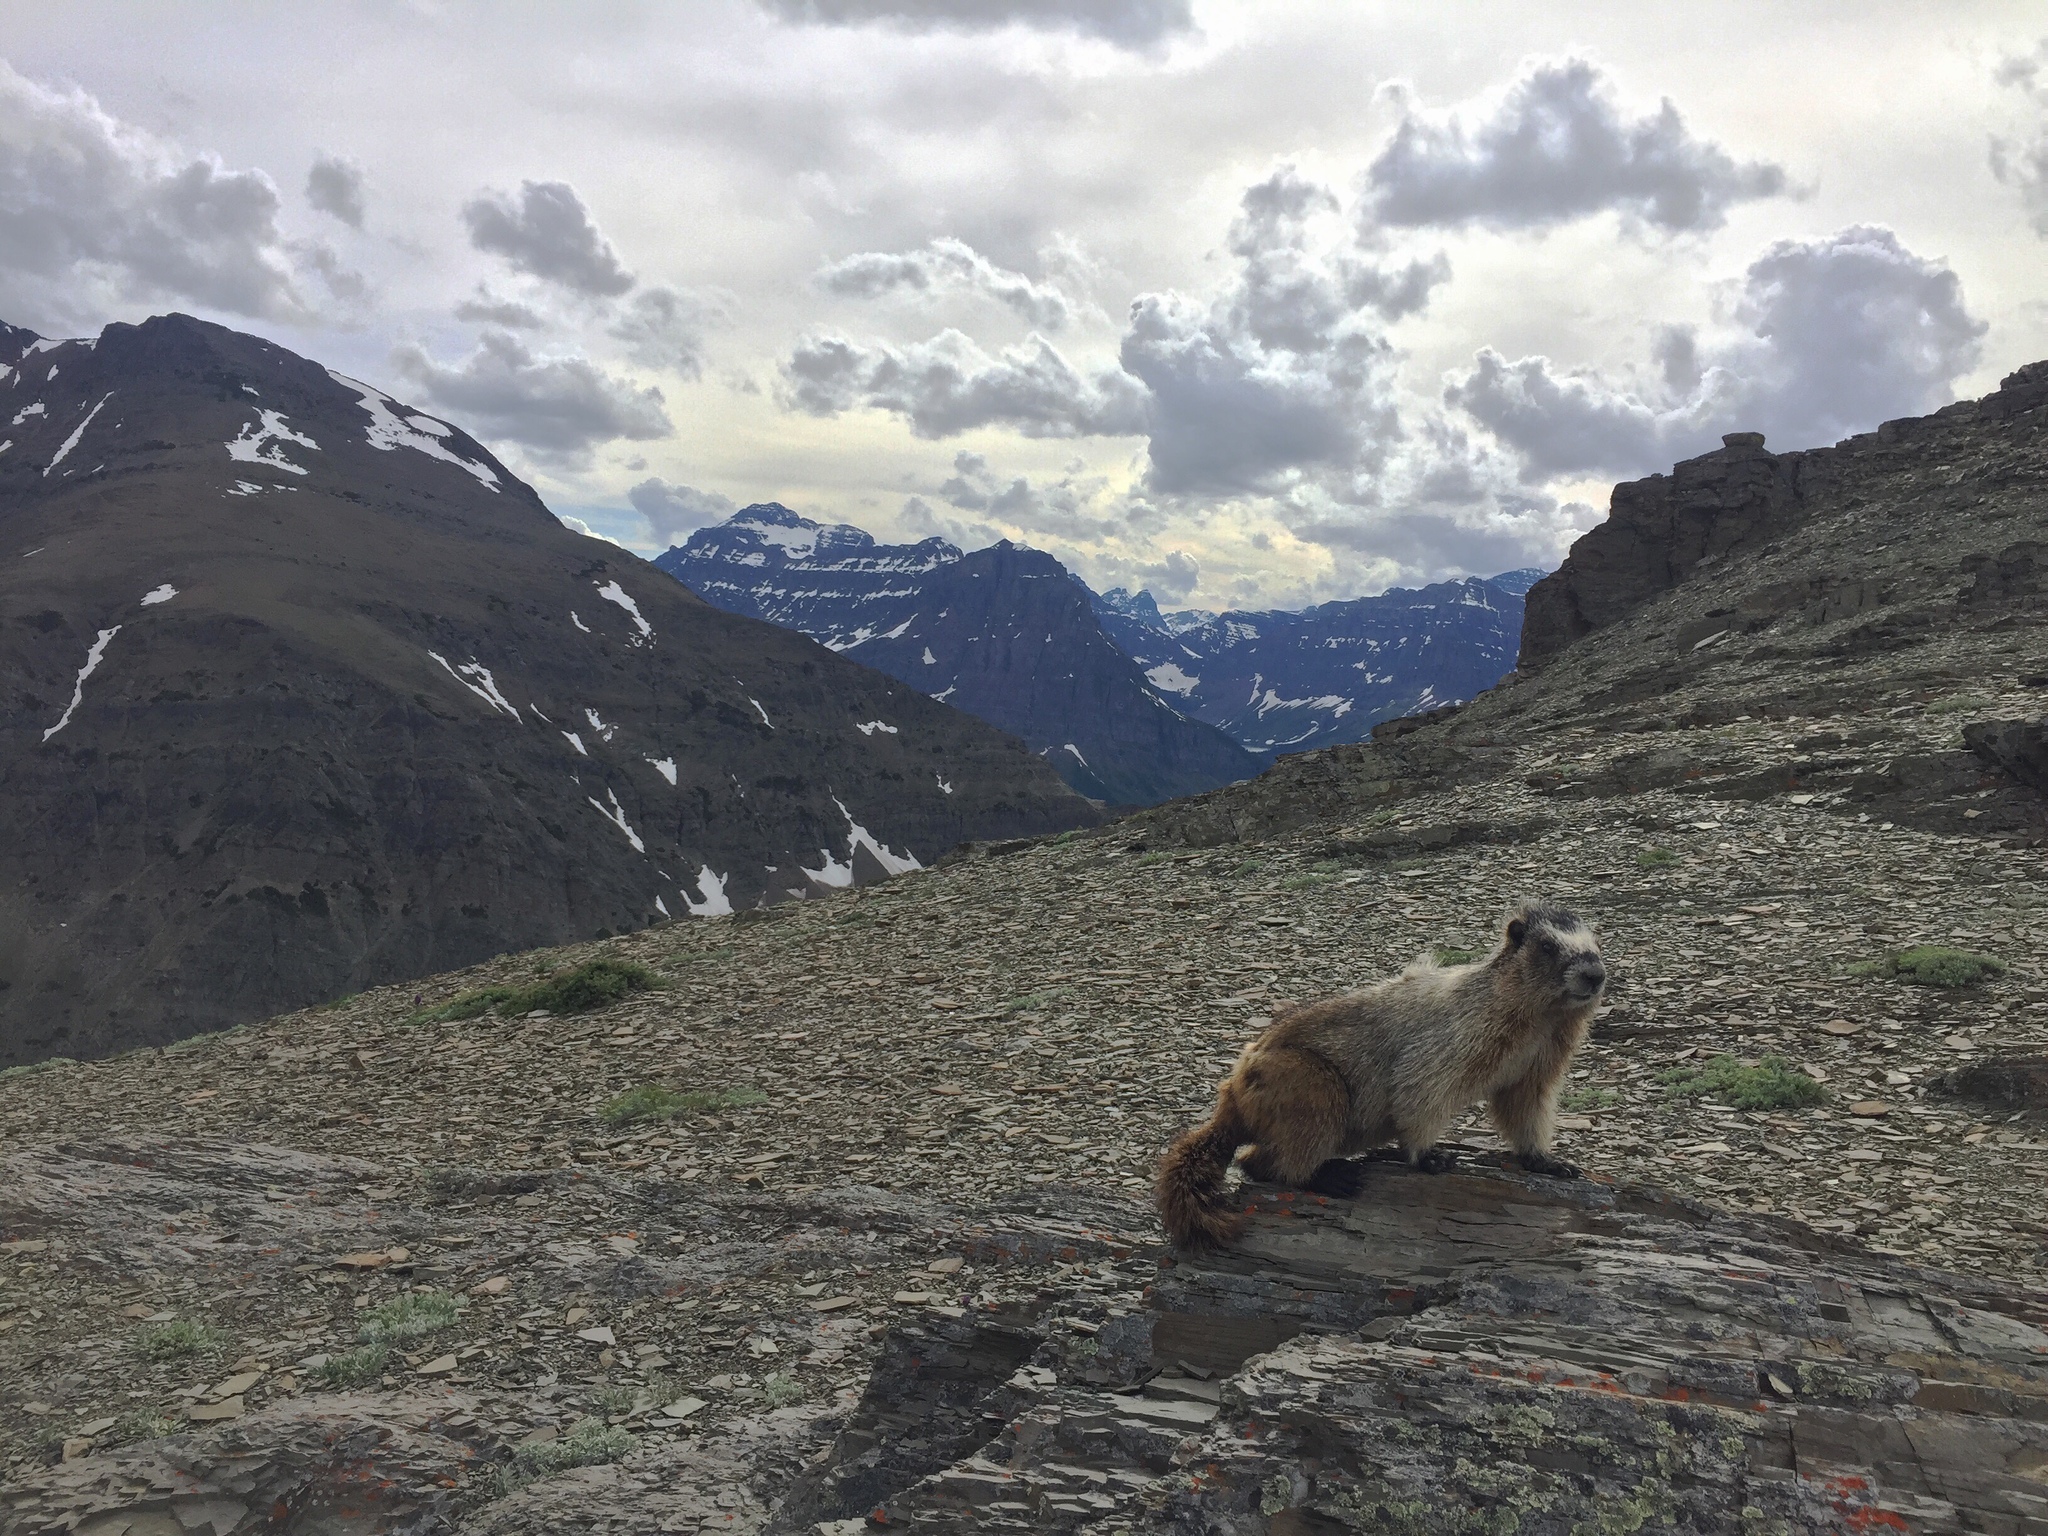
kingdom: Animalia
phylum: Chordata
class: Mammalia
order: Rodentia
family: Sciuridae
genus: Marmota
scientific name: Marmota caligata
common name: Hoary marmot
